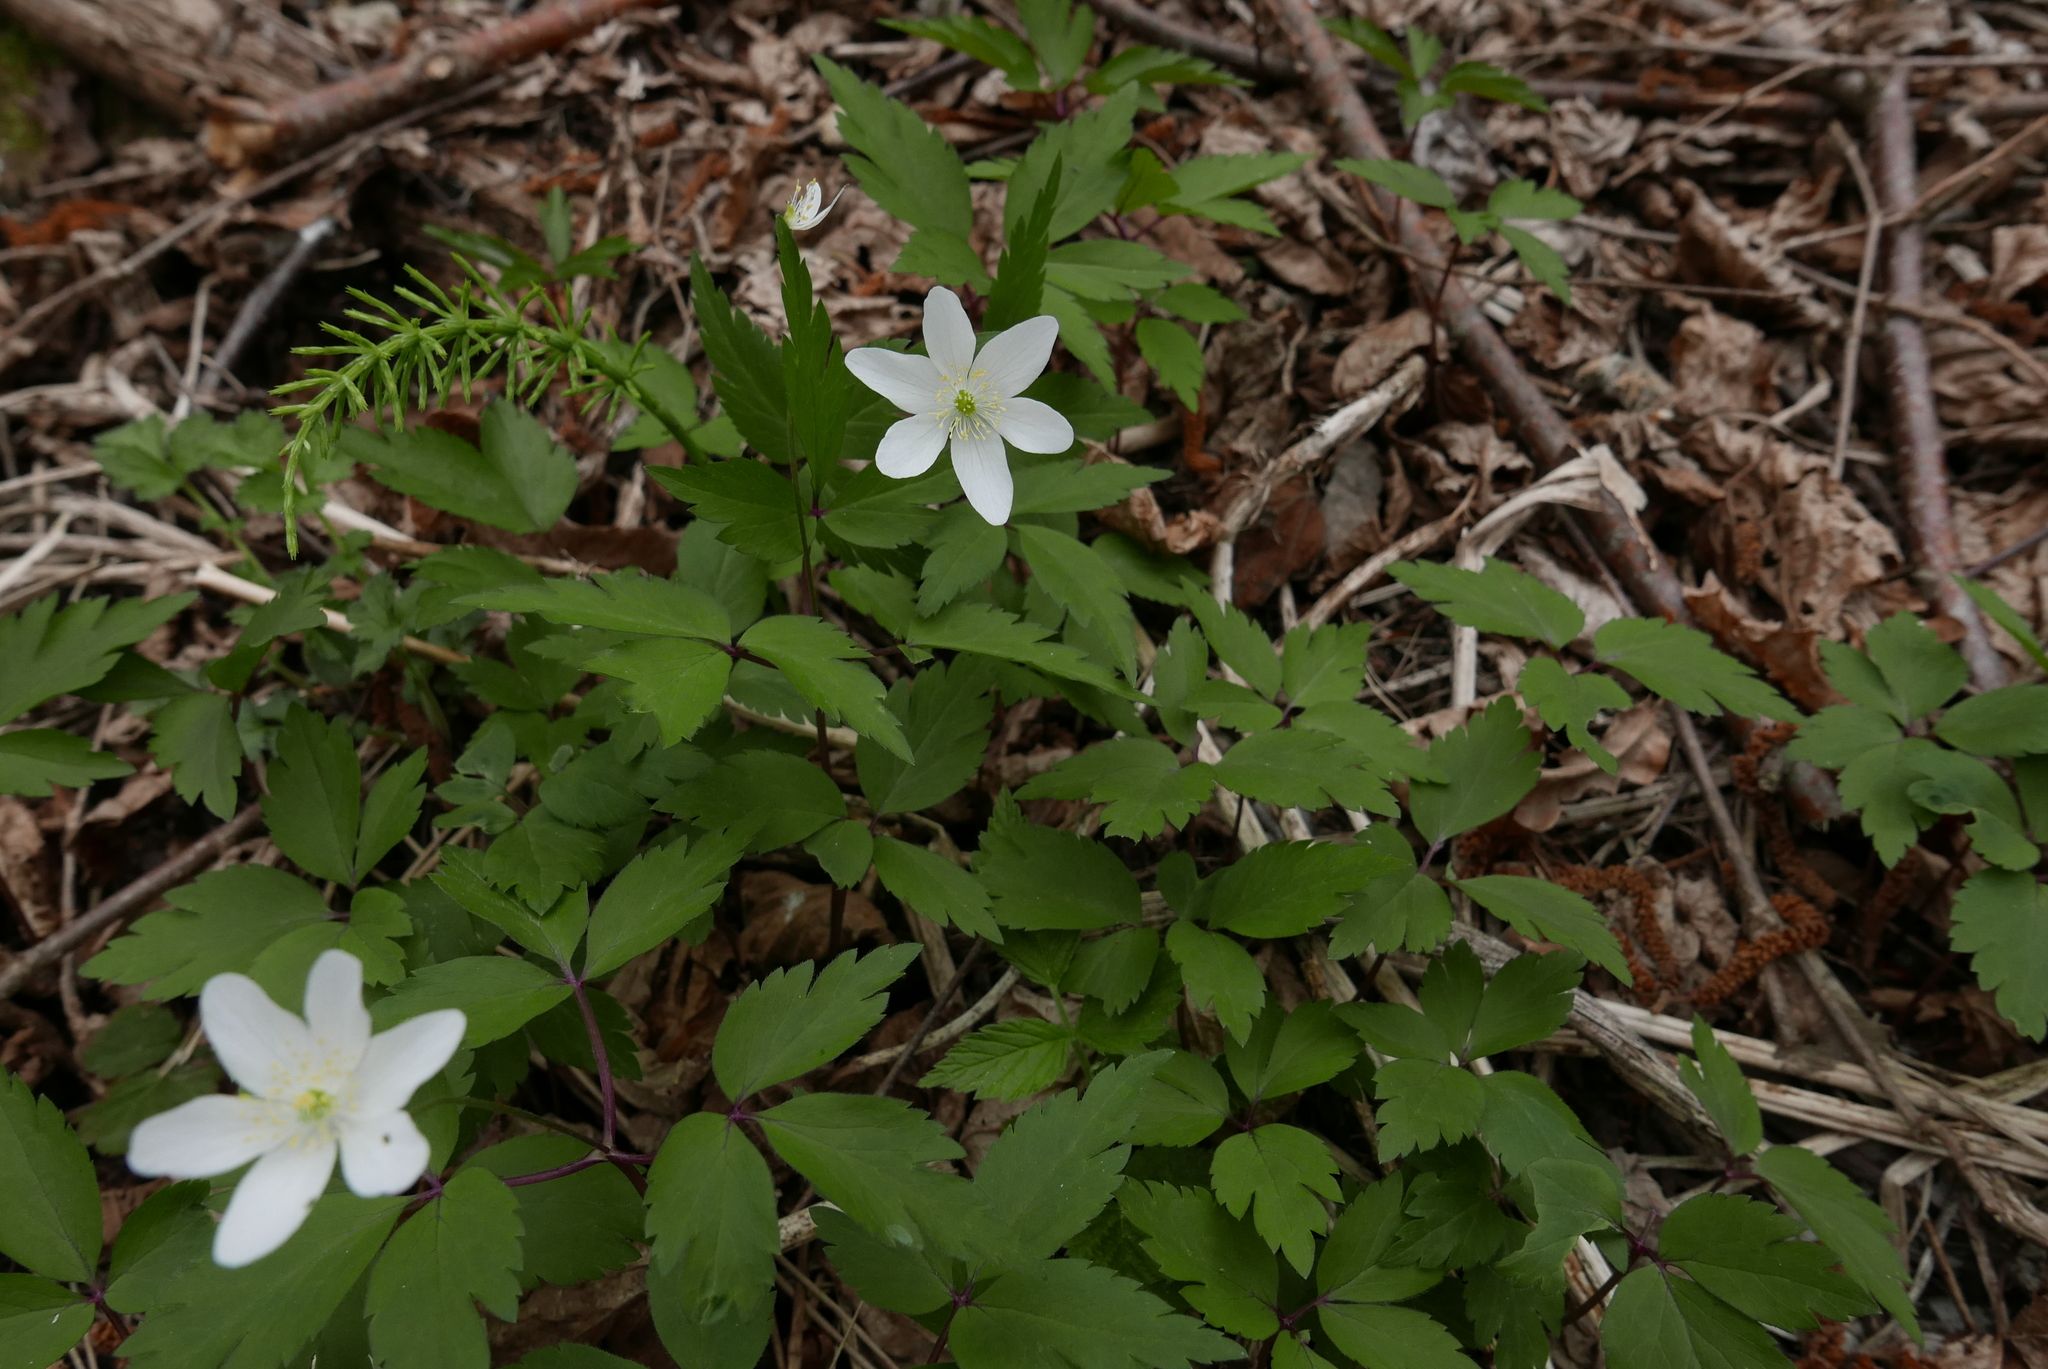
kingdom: Plantae
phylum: Tracheophyta
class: Magnoliopsida
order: Ranunculales
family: Ranunculaceae
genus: Anemone
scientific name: Anemone pittonii
